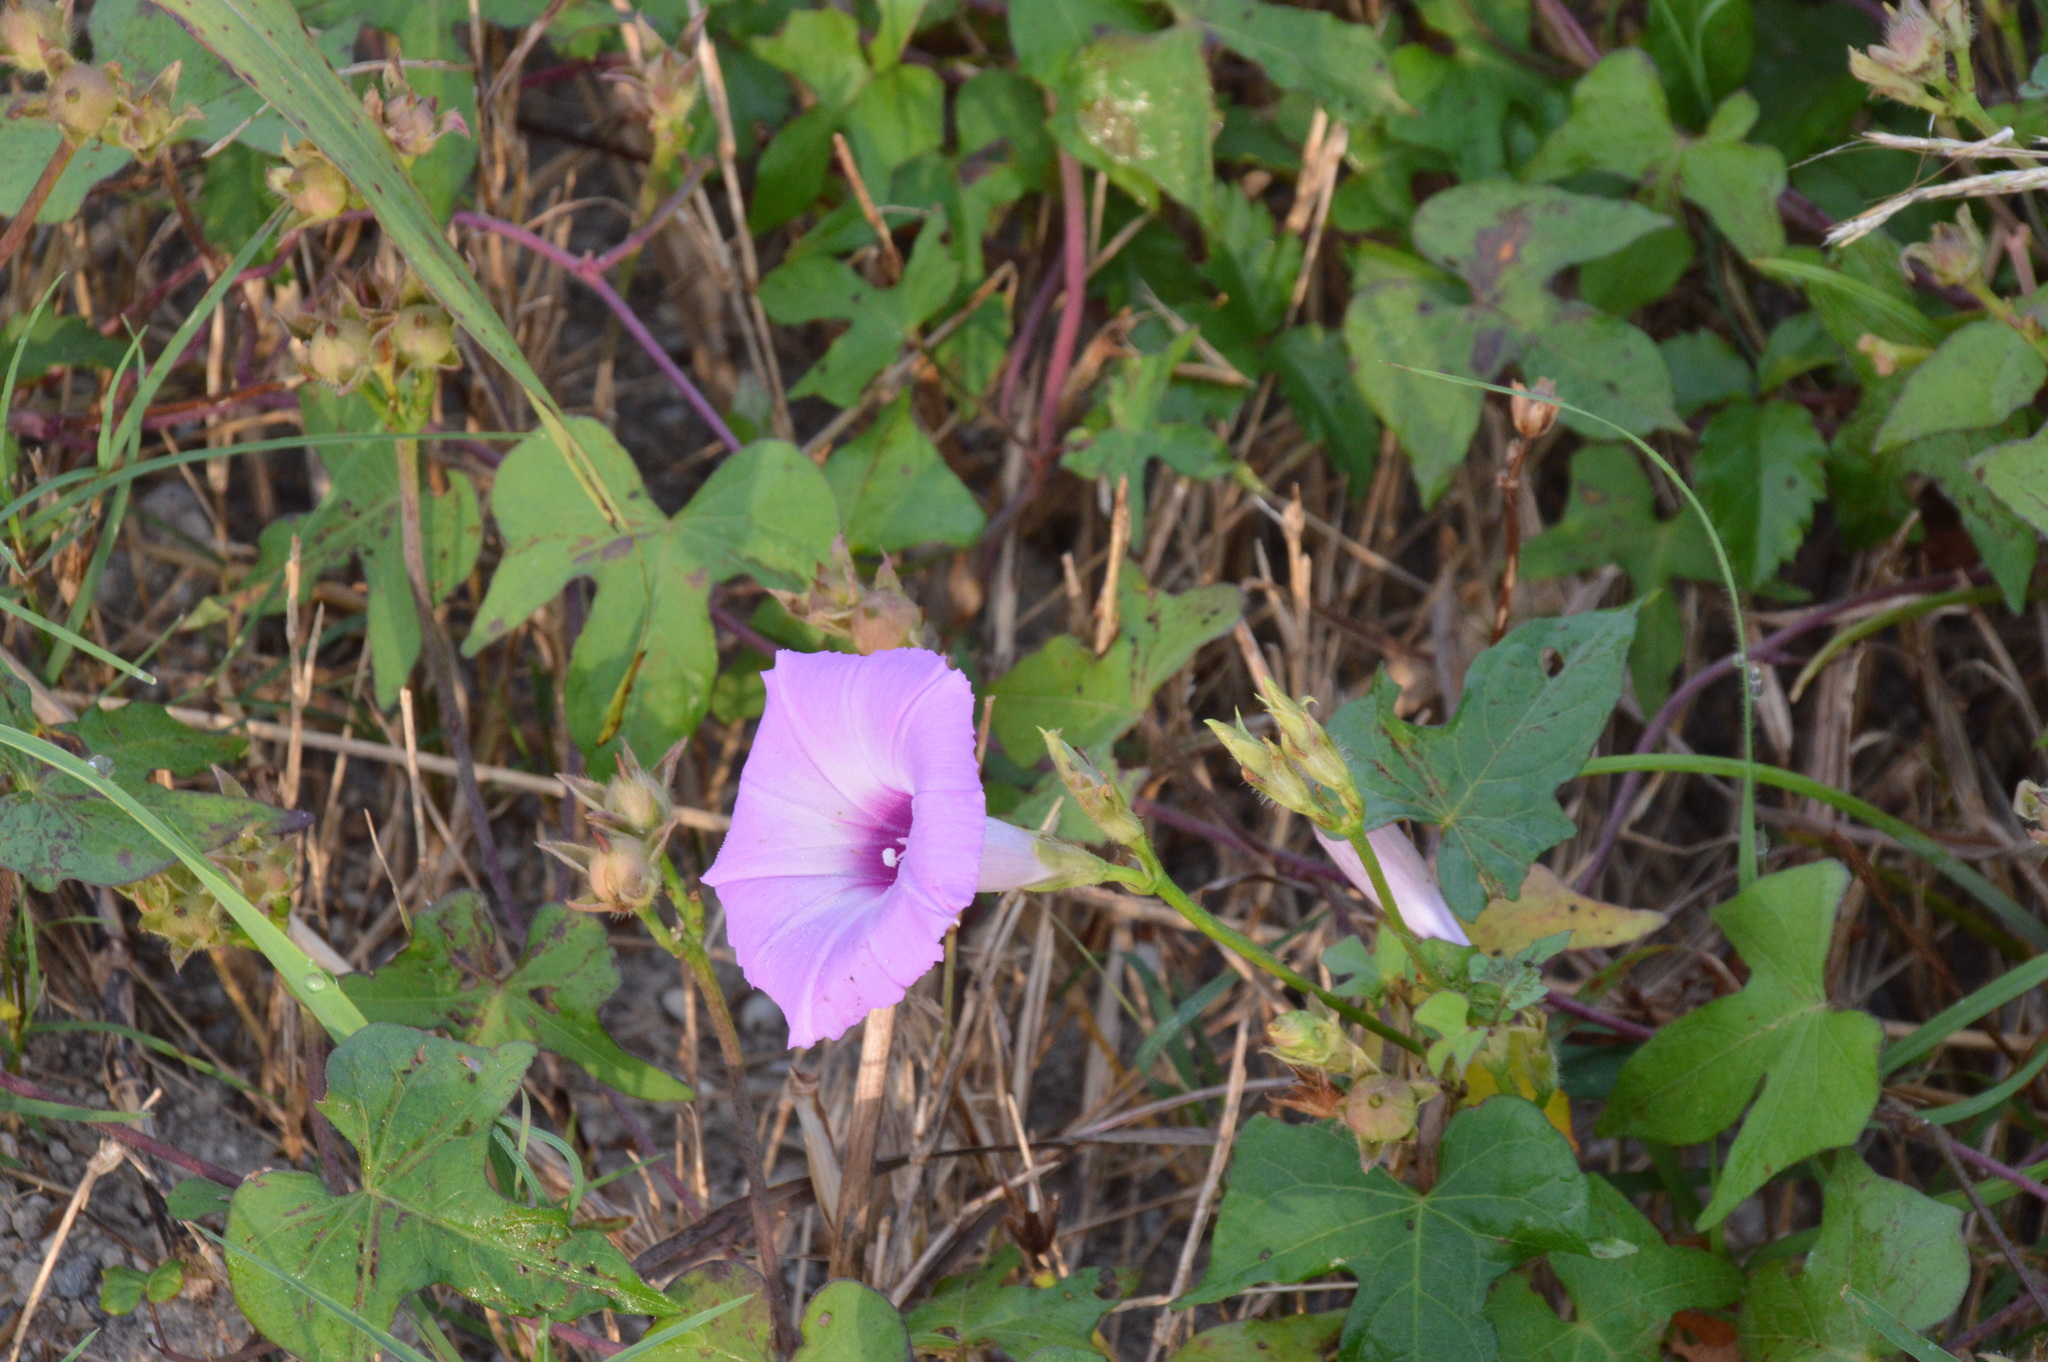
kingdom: Plantae
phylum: Tracheophyta
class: Magnoliopsida
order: Solanales
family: Convolvulaceae
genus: Ipomoea
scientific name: Ipomoea cordatotriloba
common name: Cotton morning glory
